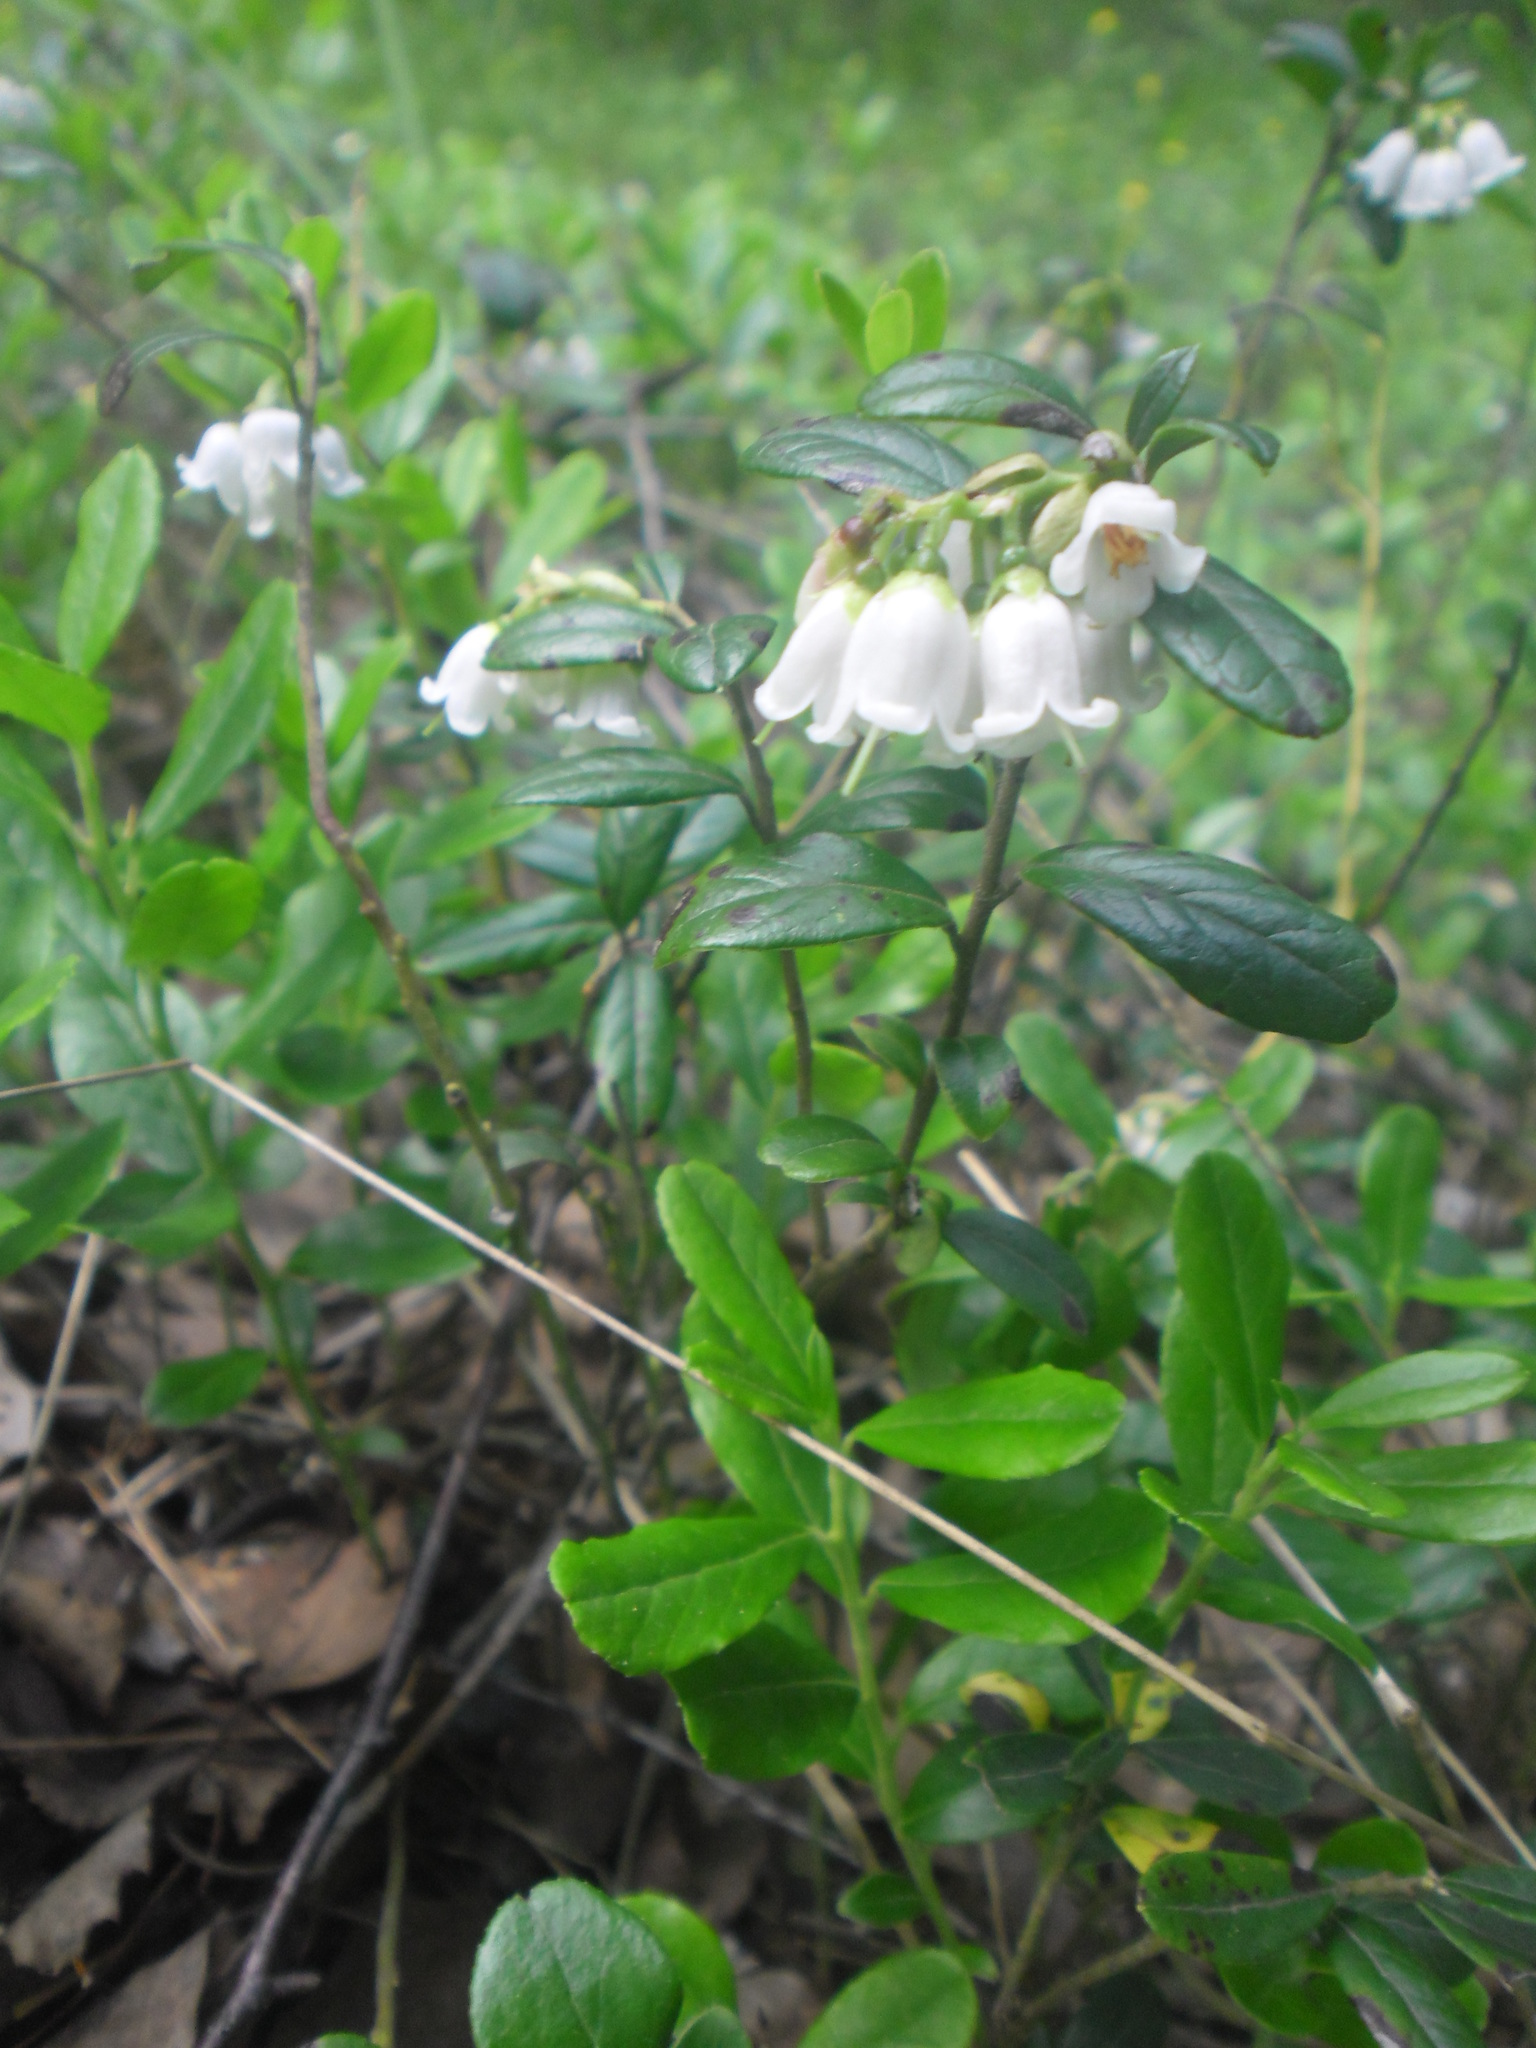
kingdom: Plantae
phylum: Tracheophyta
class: Magnoliopsida
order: Ericales
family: Ericaceae
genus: Vaccinium
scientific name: Vaccinium vitis-idaea
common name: Cowberry
